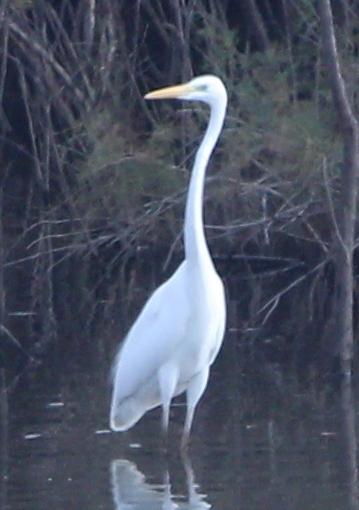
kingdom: Animalia
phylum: Chordata
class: Aves
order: Pelecaniformes
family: Ardeidae
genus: Ardea
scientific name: Ardea alba
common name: Great egret
